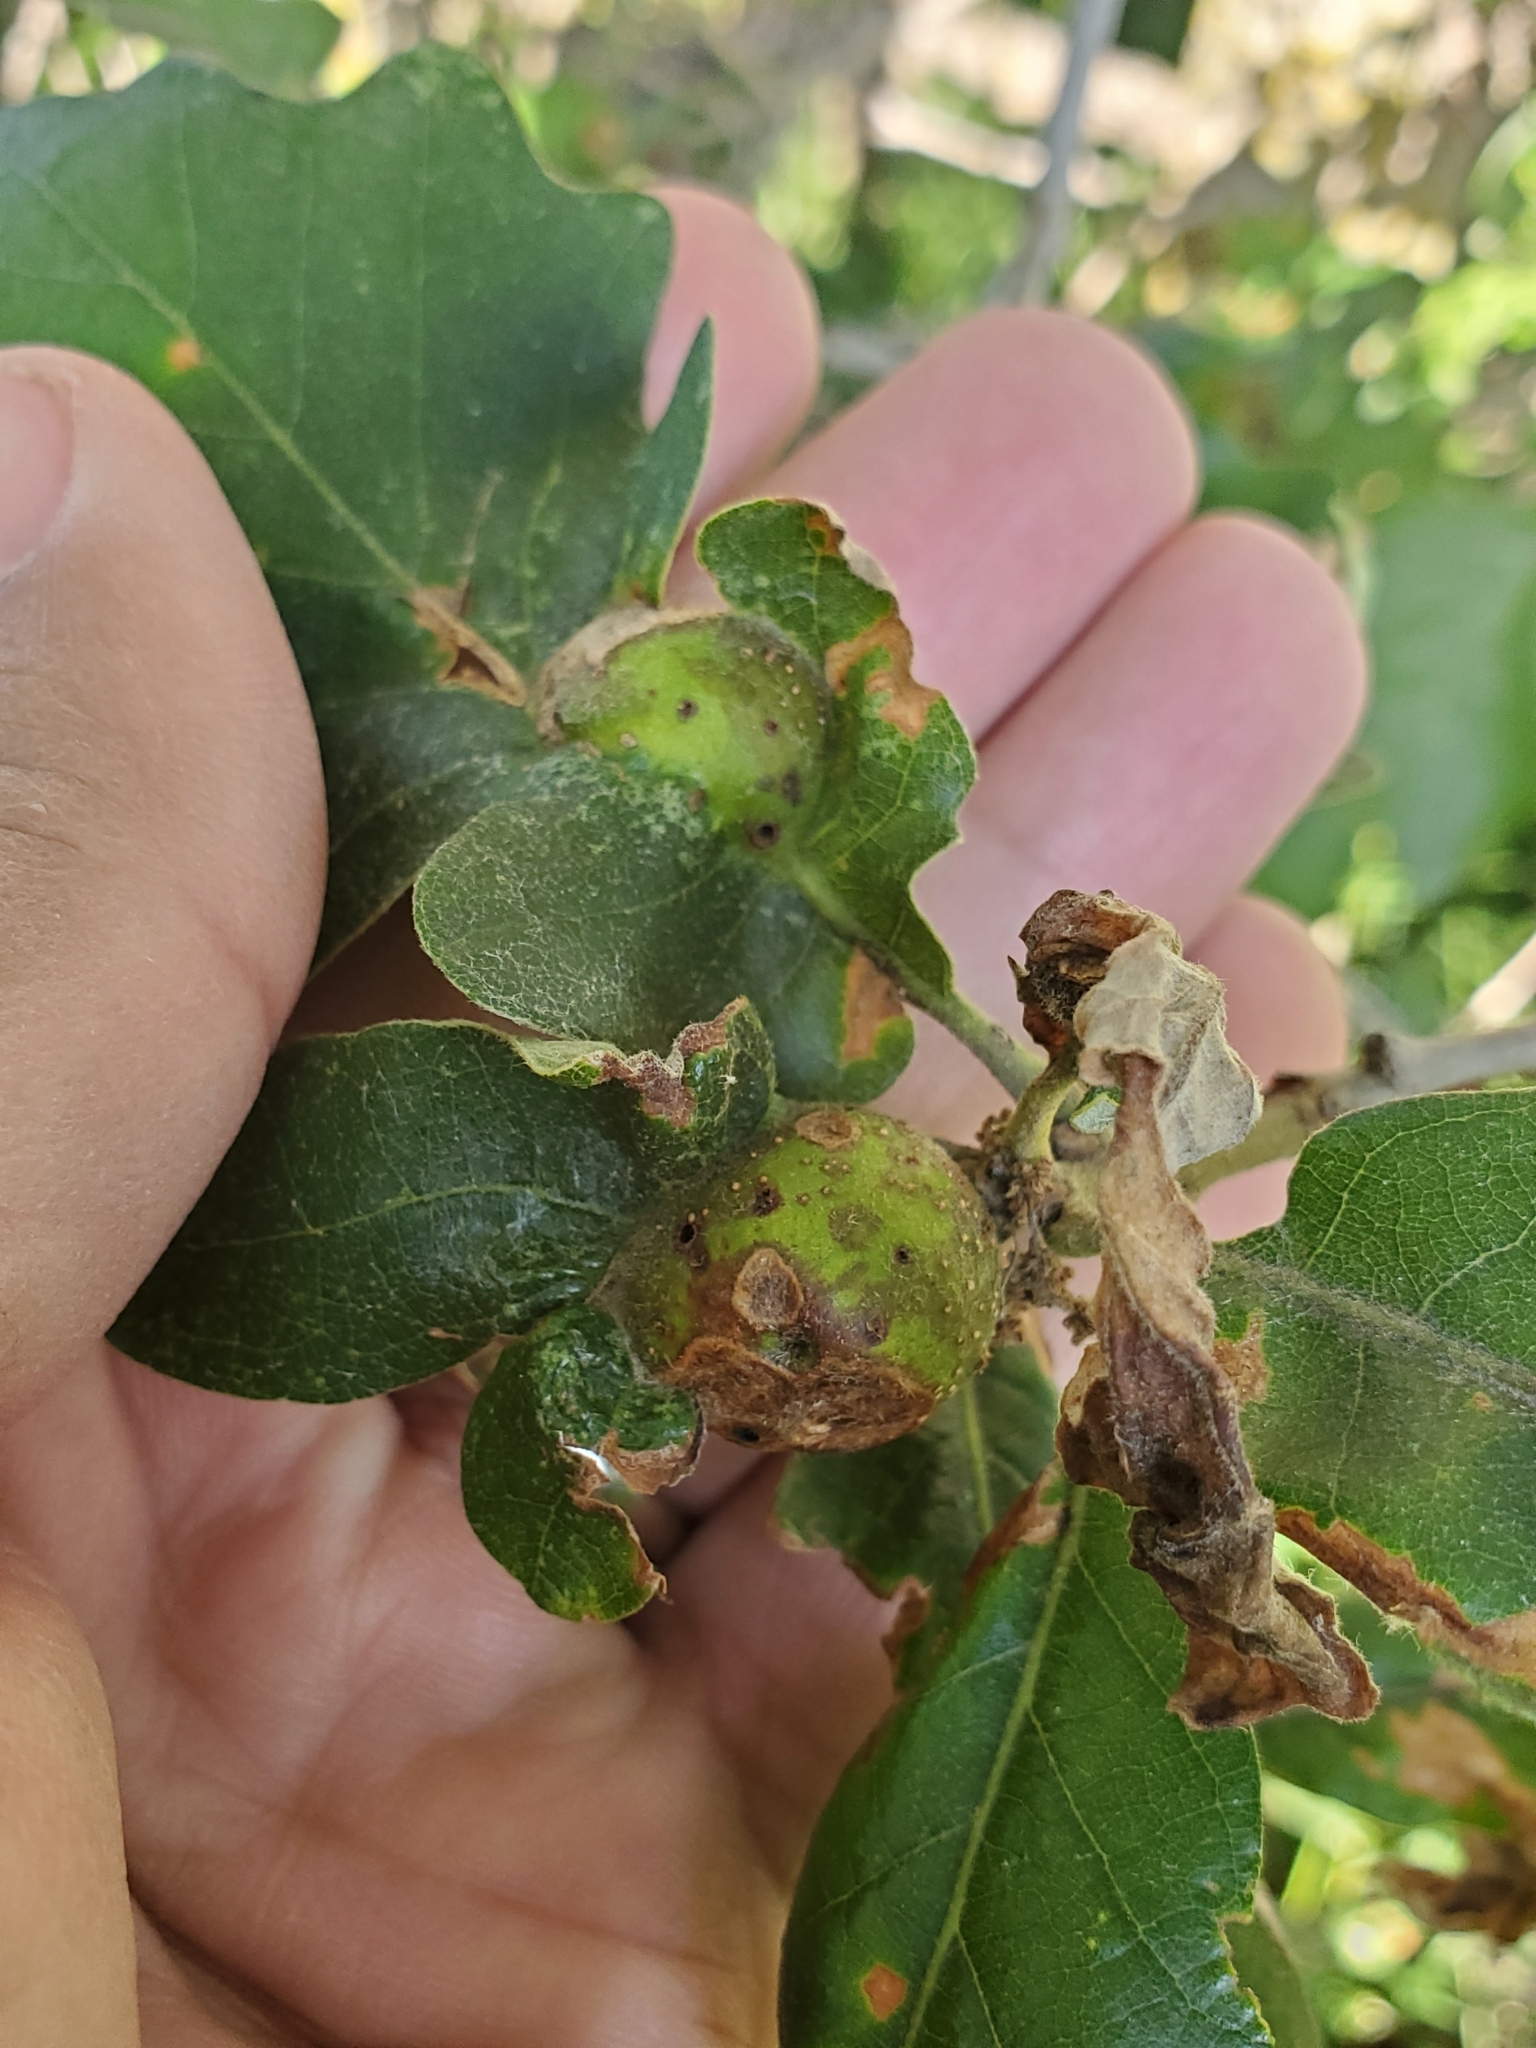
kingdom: Animalia
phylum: Arthropoda
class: Insecta
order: Hymenoptera
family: Cynipidae
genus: Andricus
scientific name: Andricus
